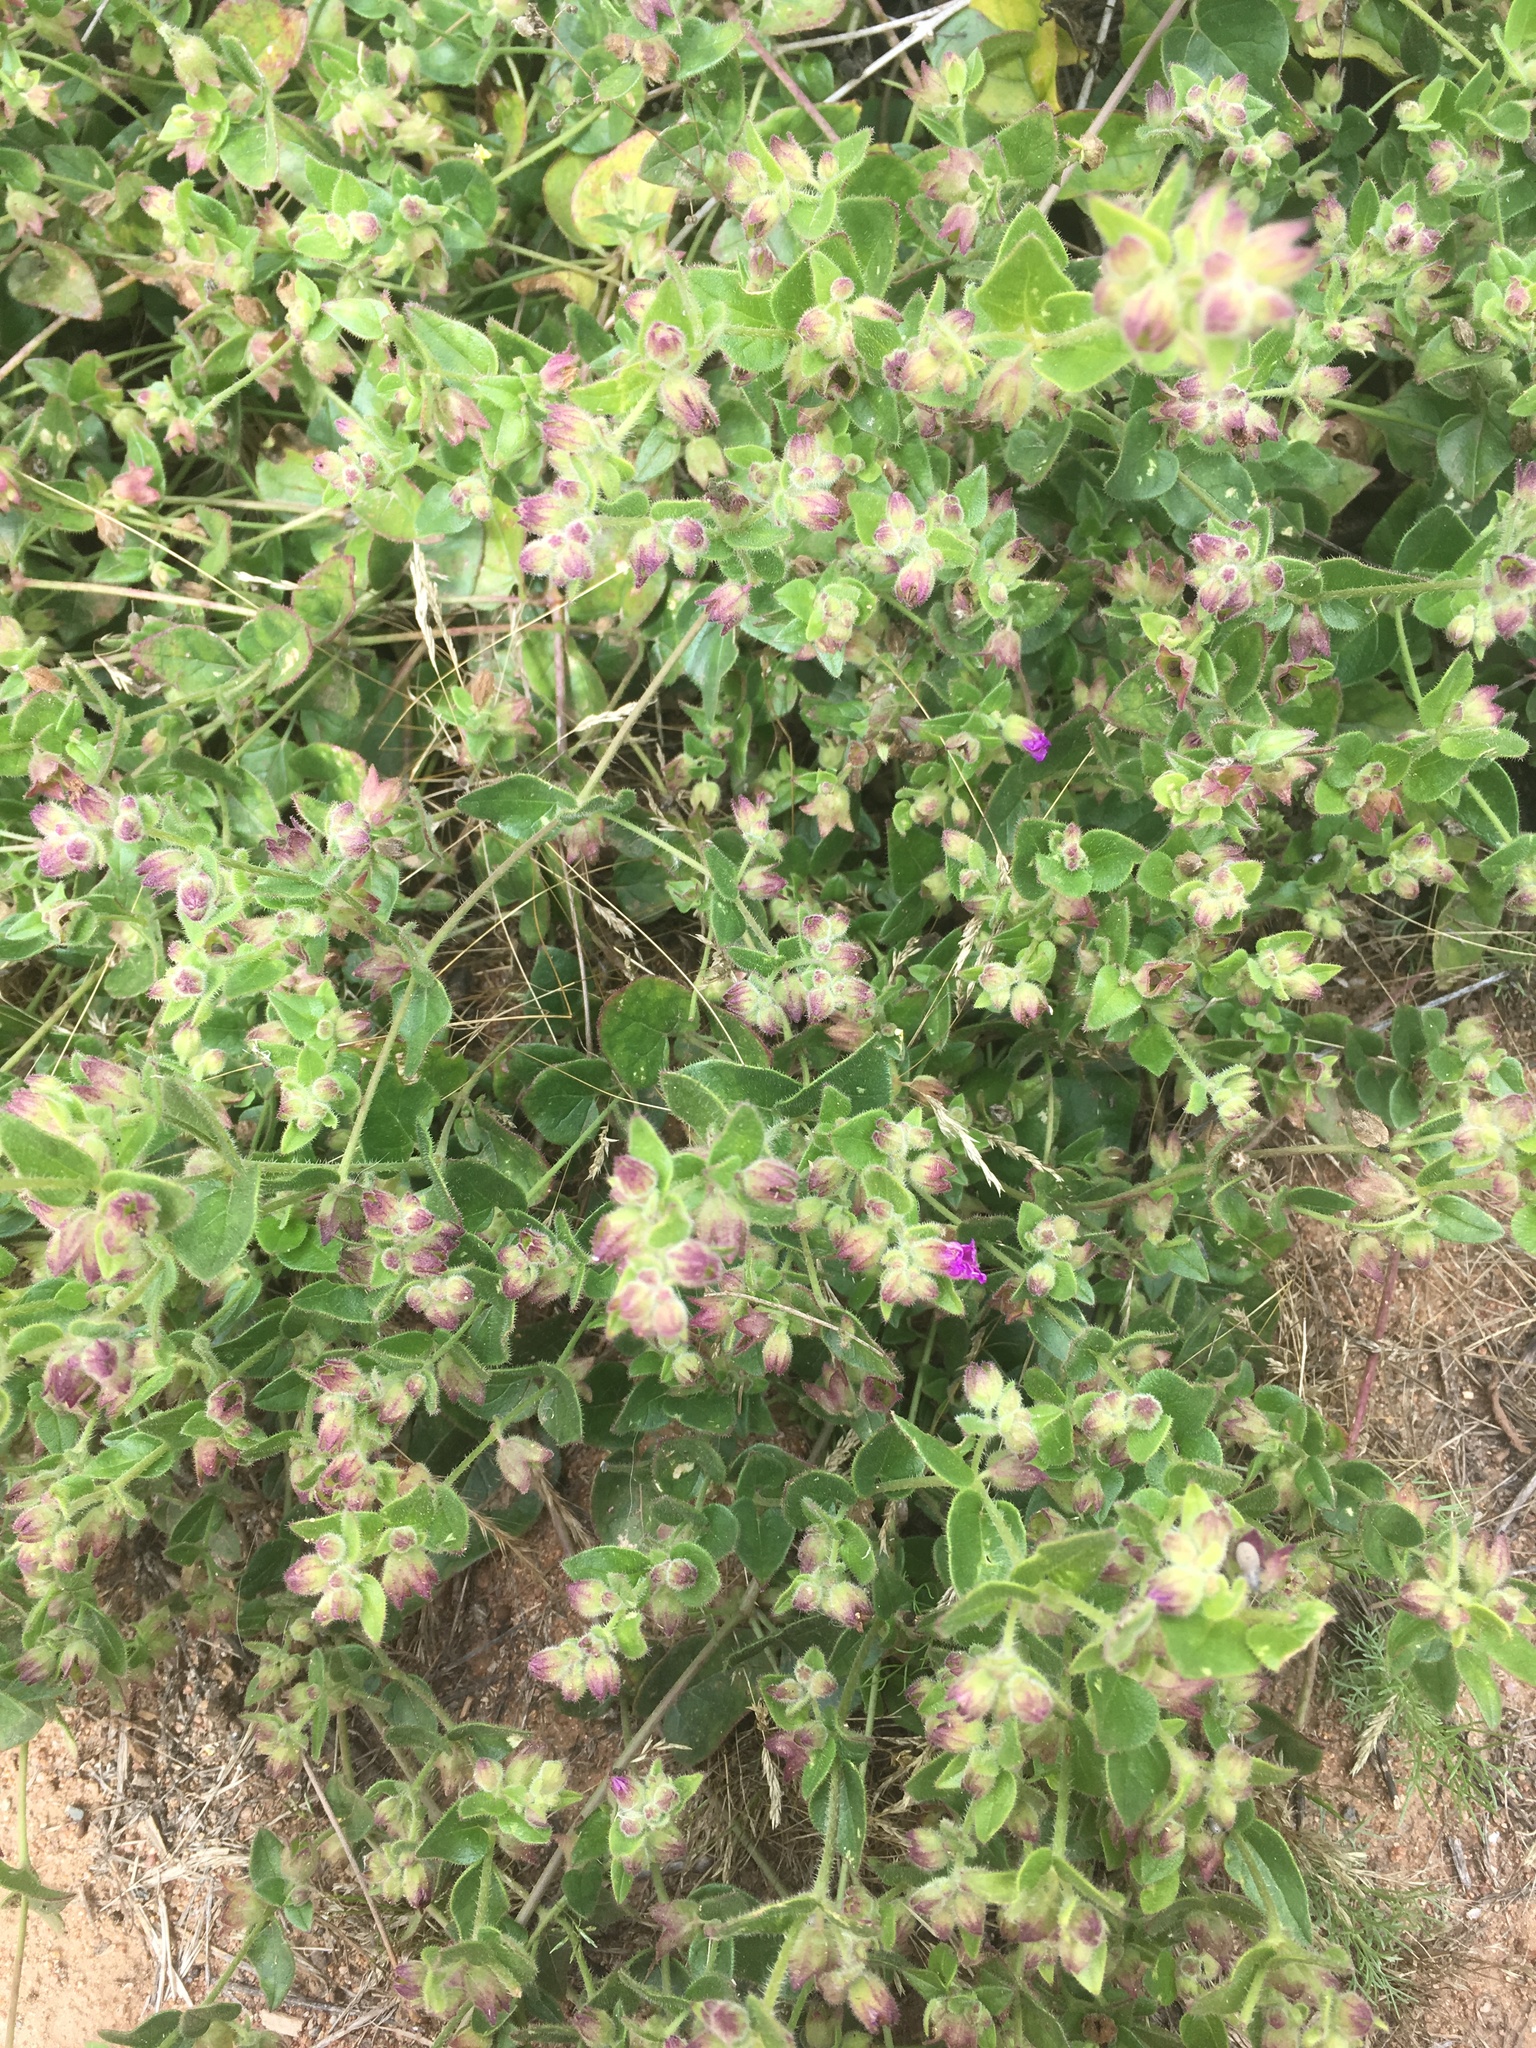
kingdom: Plantae
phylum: Tracheophyta
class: Magnoliopsida
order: Caryophyllales
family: Nyctaginaceae
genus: Mirabilis
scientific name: Mirabilis laevis
